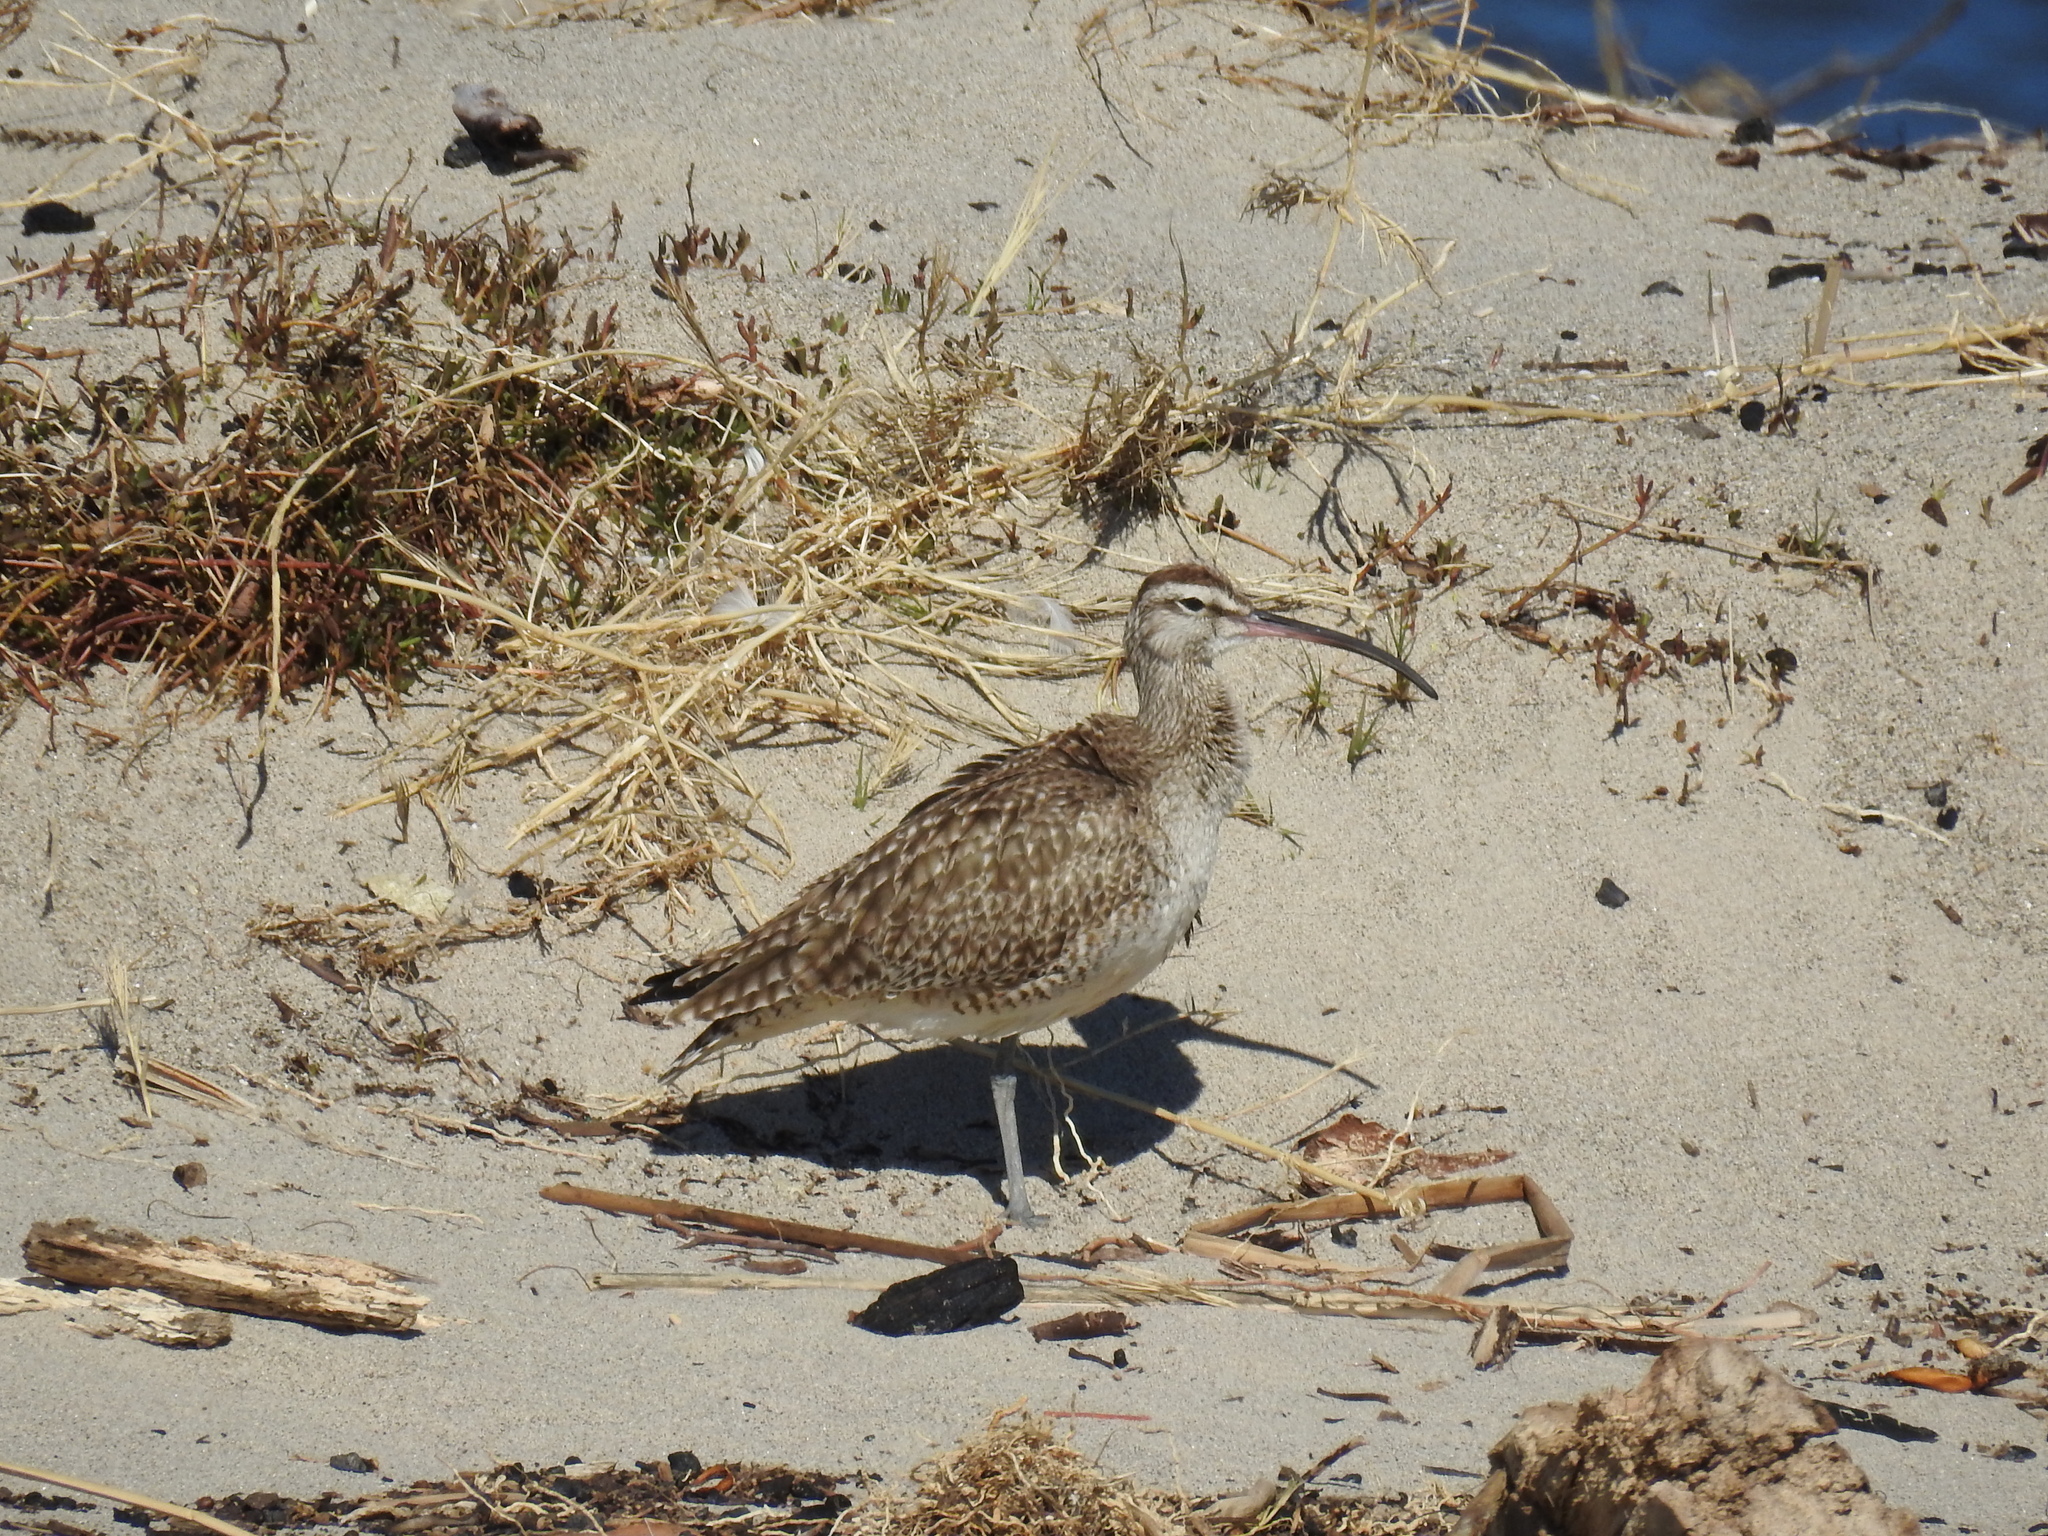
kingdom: Animalia
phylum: Chordata
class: Aves
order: Charadriiformes
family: Scolopacidae
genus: Numenius
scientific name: Numenius phaeopus
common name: Whimbrel
